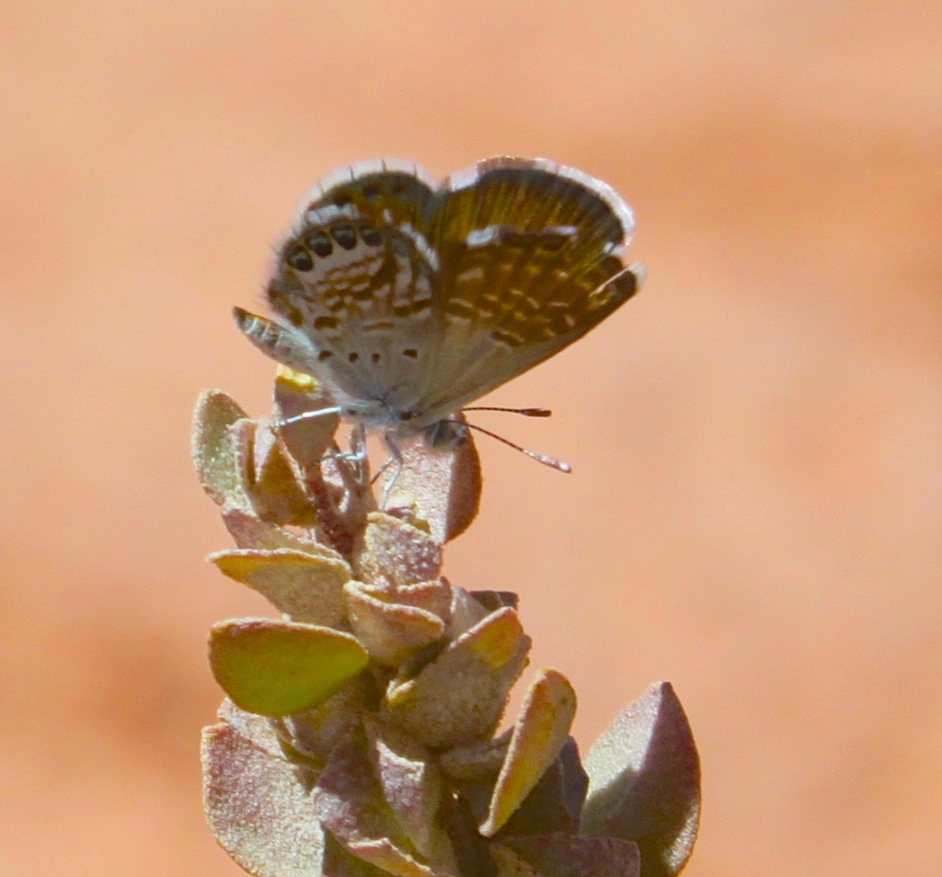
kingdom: Animalia
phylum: Arthropoda
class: Insecta
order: Lepidoptera
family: Lycaenidae
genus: Brephidium
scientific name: Brephidium exilis
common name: Pygmy blue
